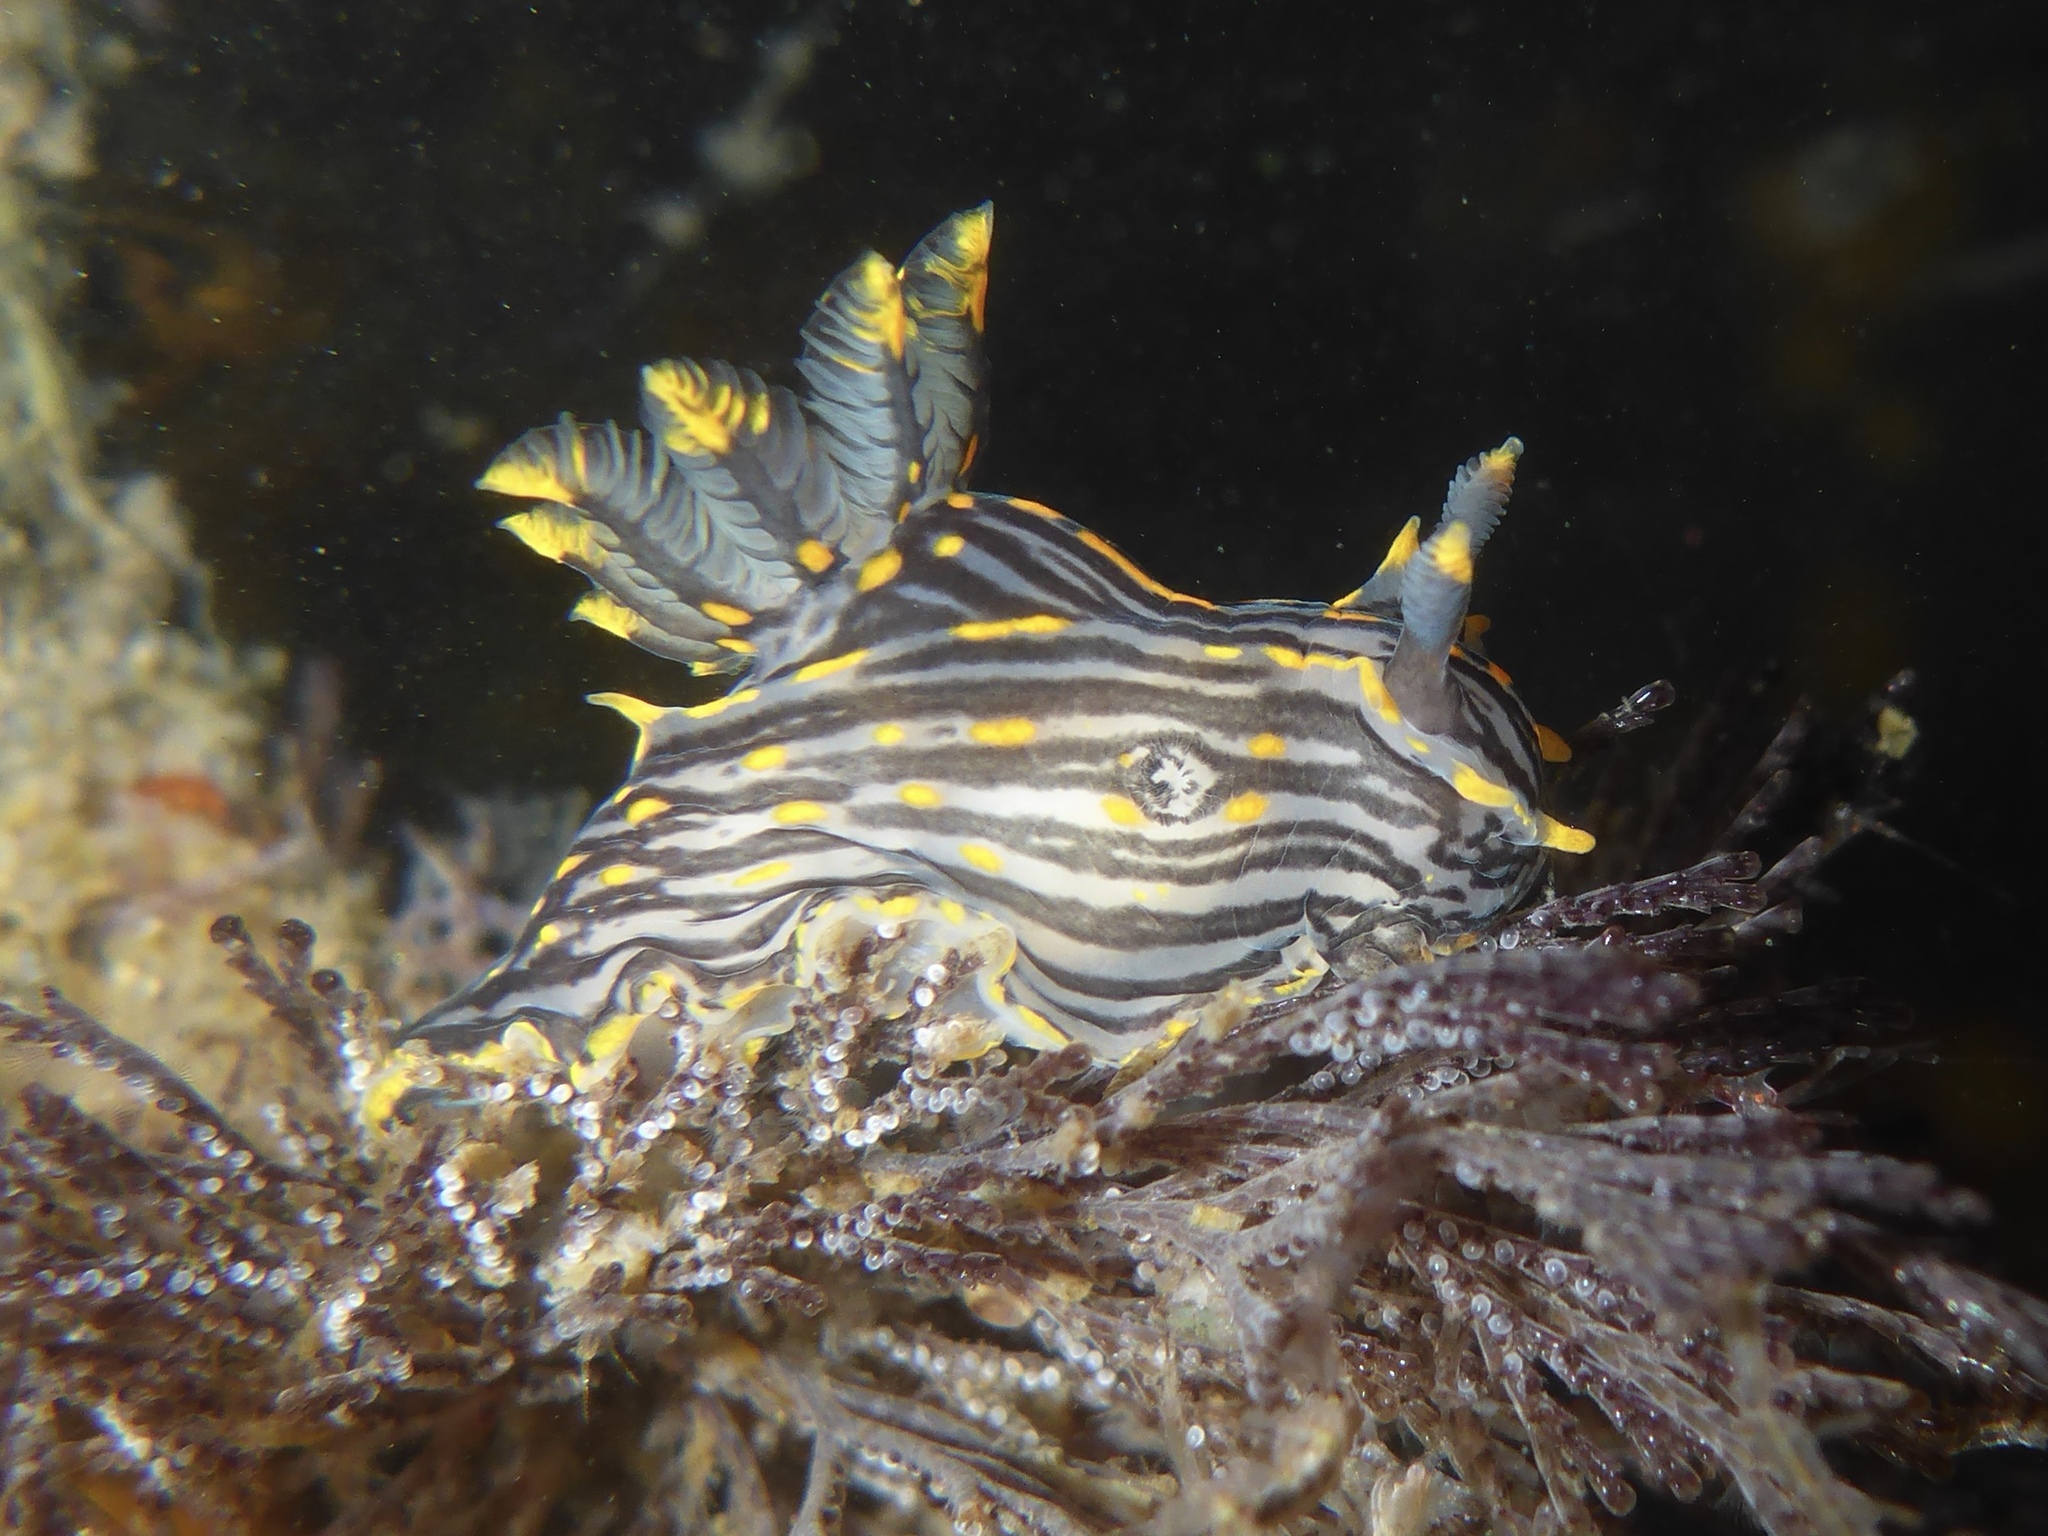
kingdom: Animalia
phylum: Mollusca
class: Gastropoda
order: Nudibranchia
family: Polyceridae
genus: Polycera
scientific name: Polycera atra
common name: Orange-spike polycera
